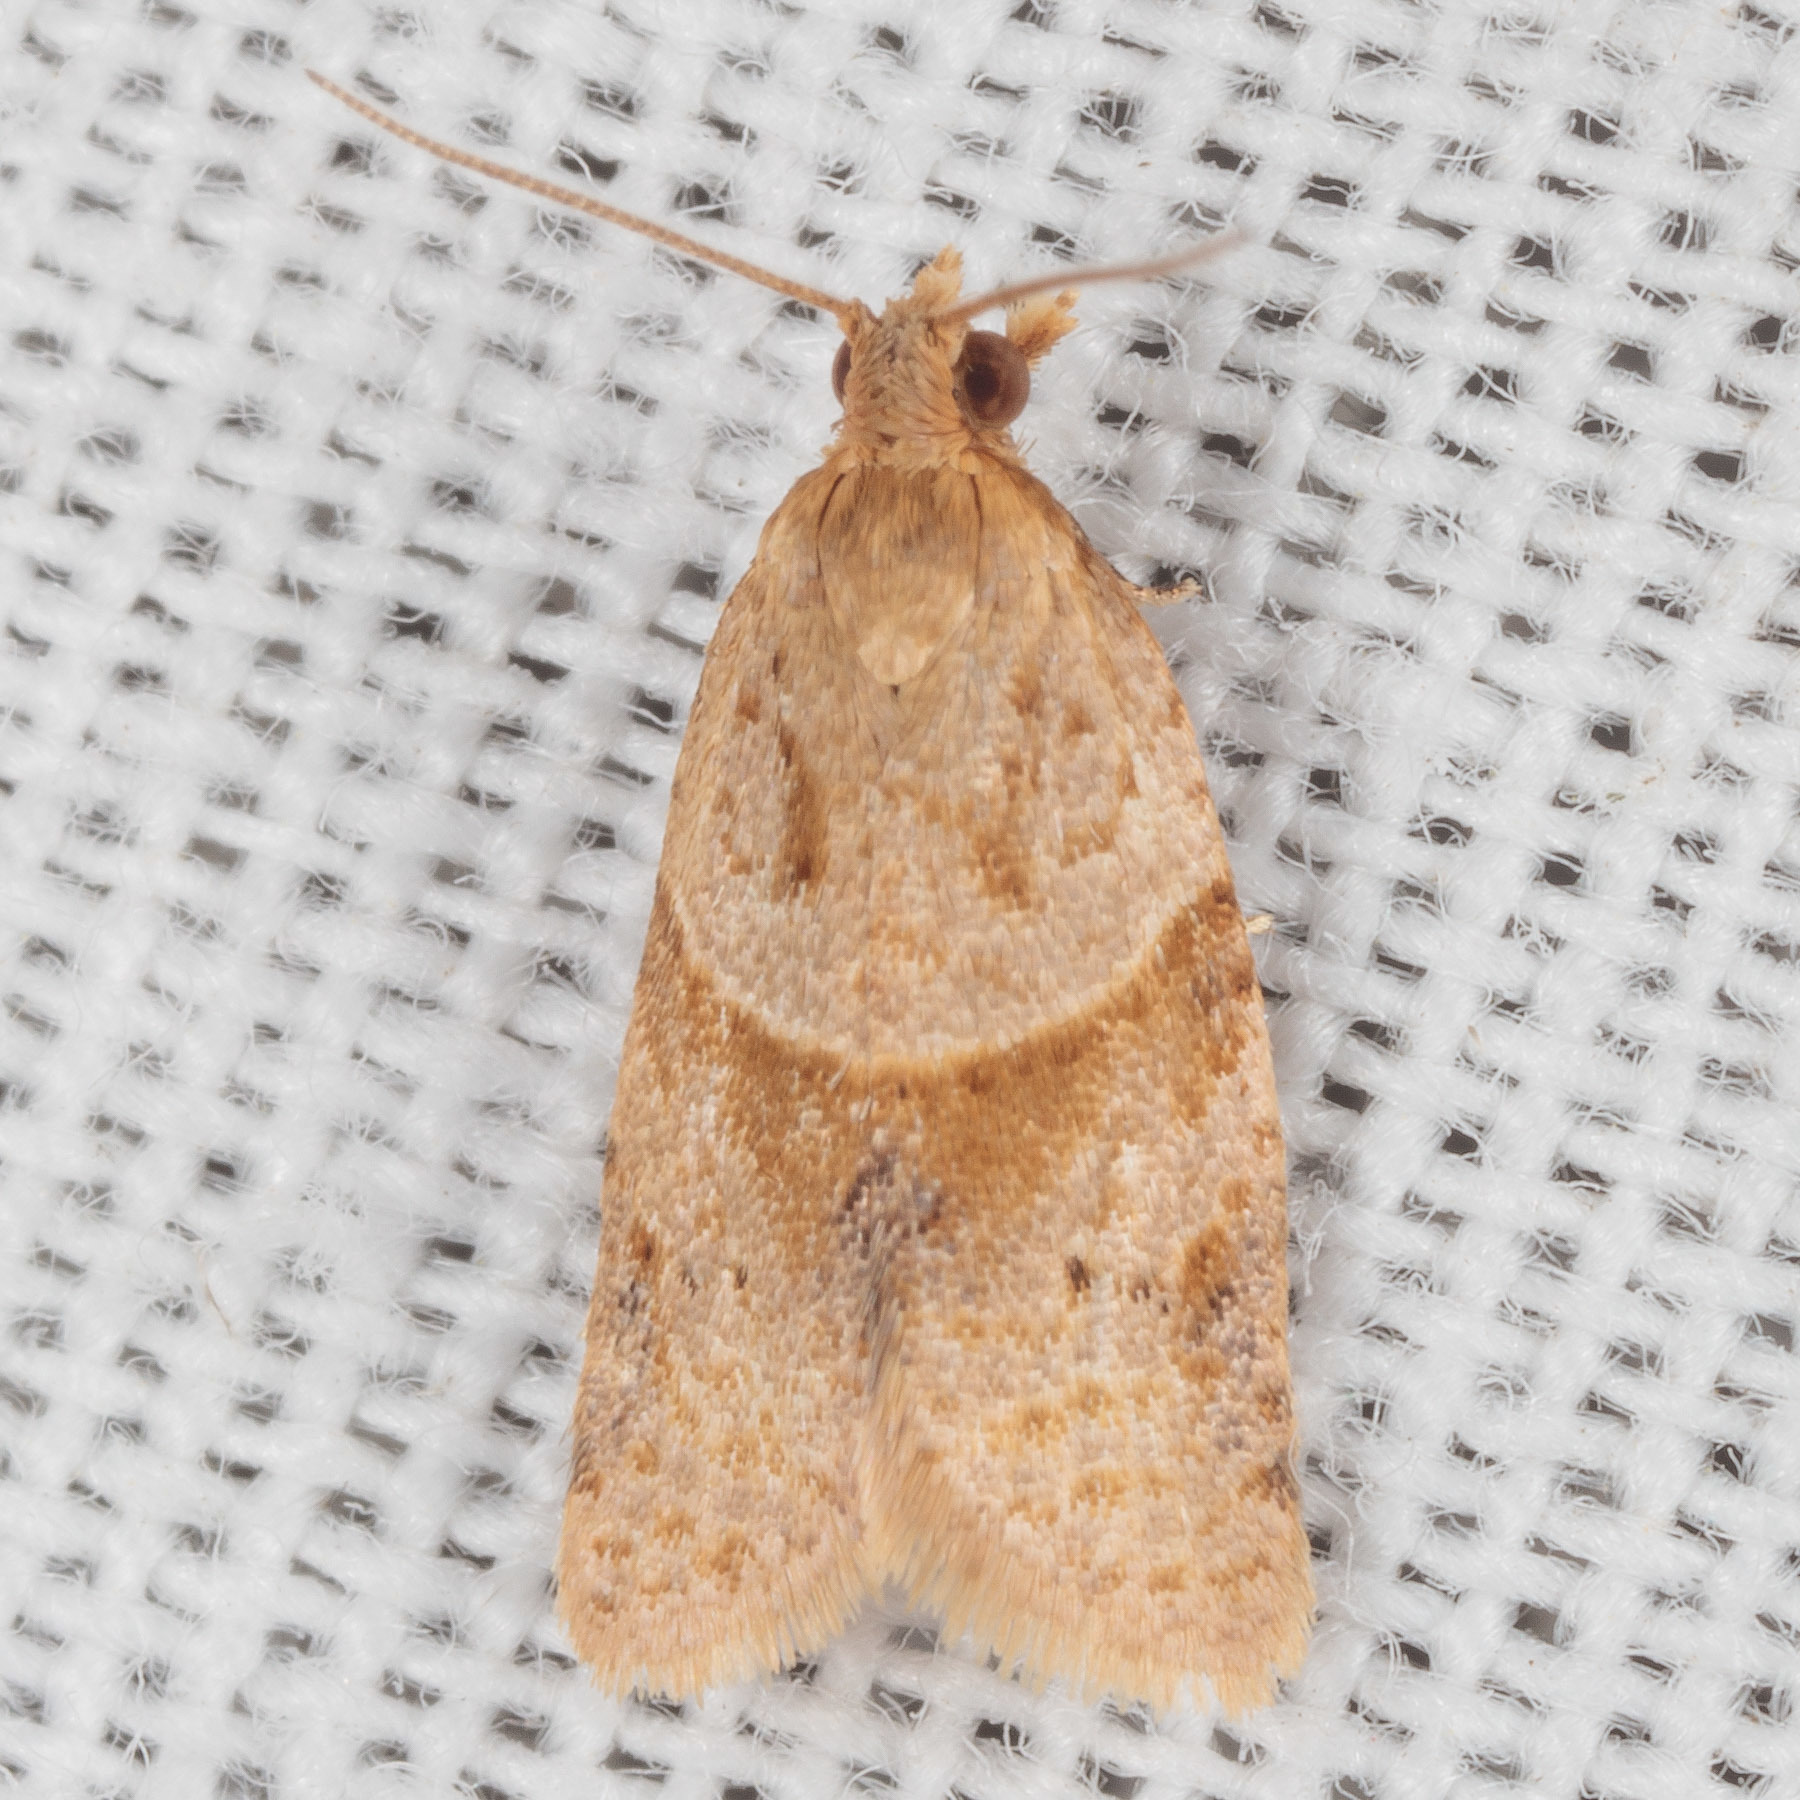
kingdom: Animalia
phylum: Arthropoda
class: Insecta
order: Lepidoptera
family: Tortricidae
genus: Clepsis
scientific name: Clepsis peritana
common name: Garden tortrix
